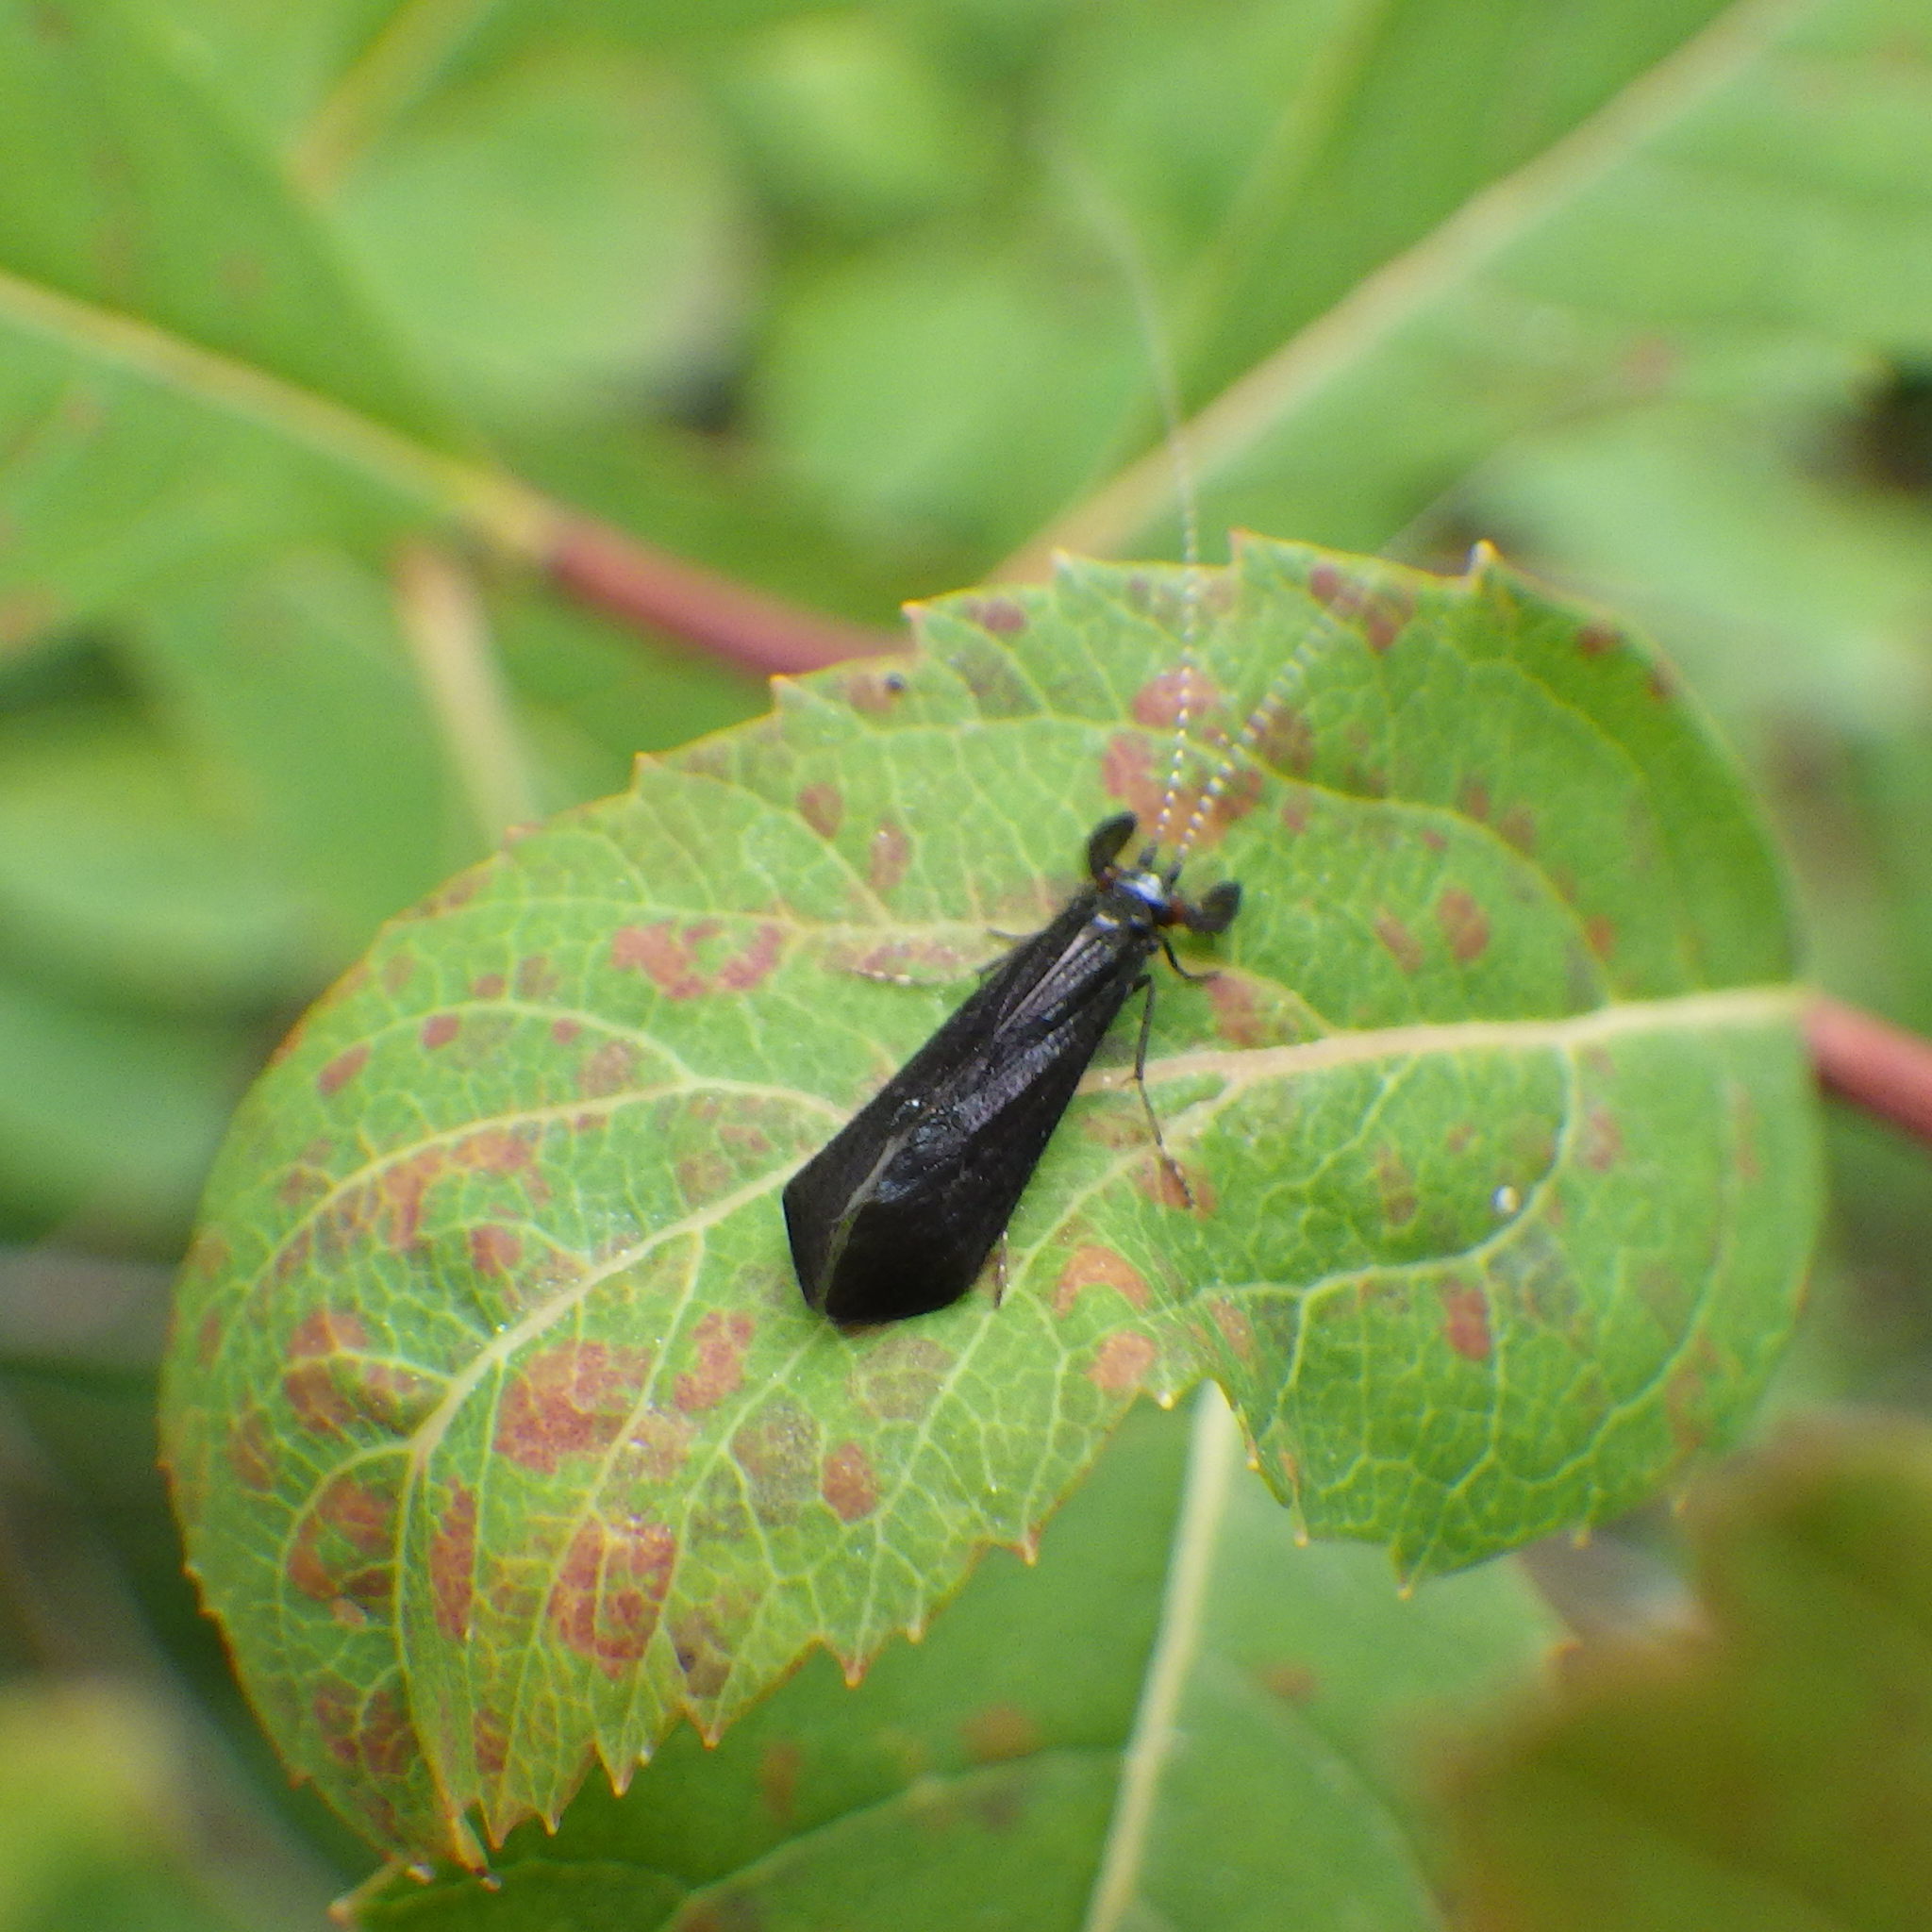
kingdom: Animalia
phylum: Arthropoda
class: Insecta
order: Trichoptera
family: Leptoceridae
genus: Mystacides
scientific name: Mystacides sepulchralis
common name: Black dancer caddisfly
